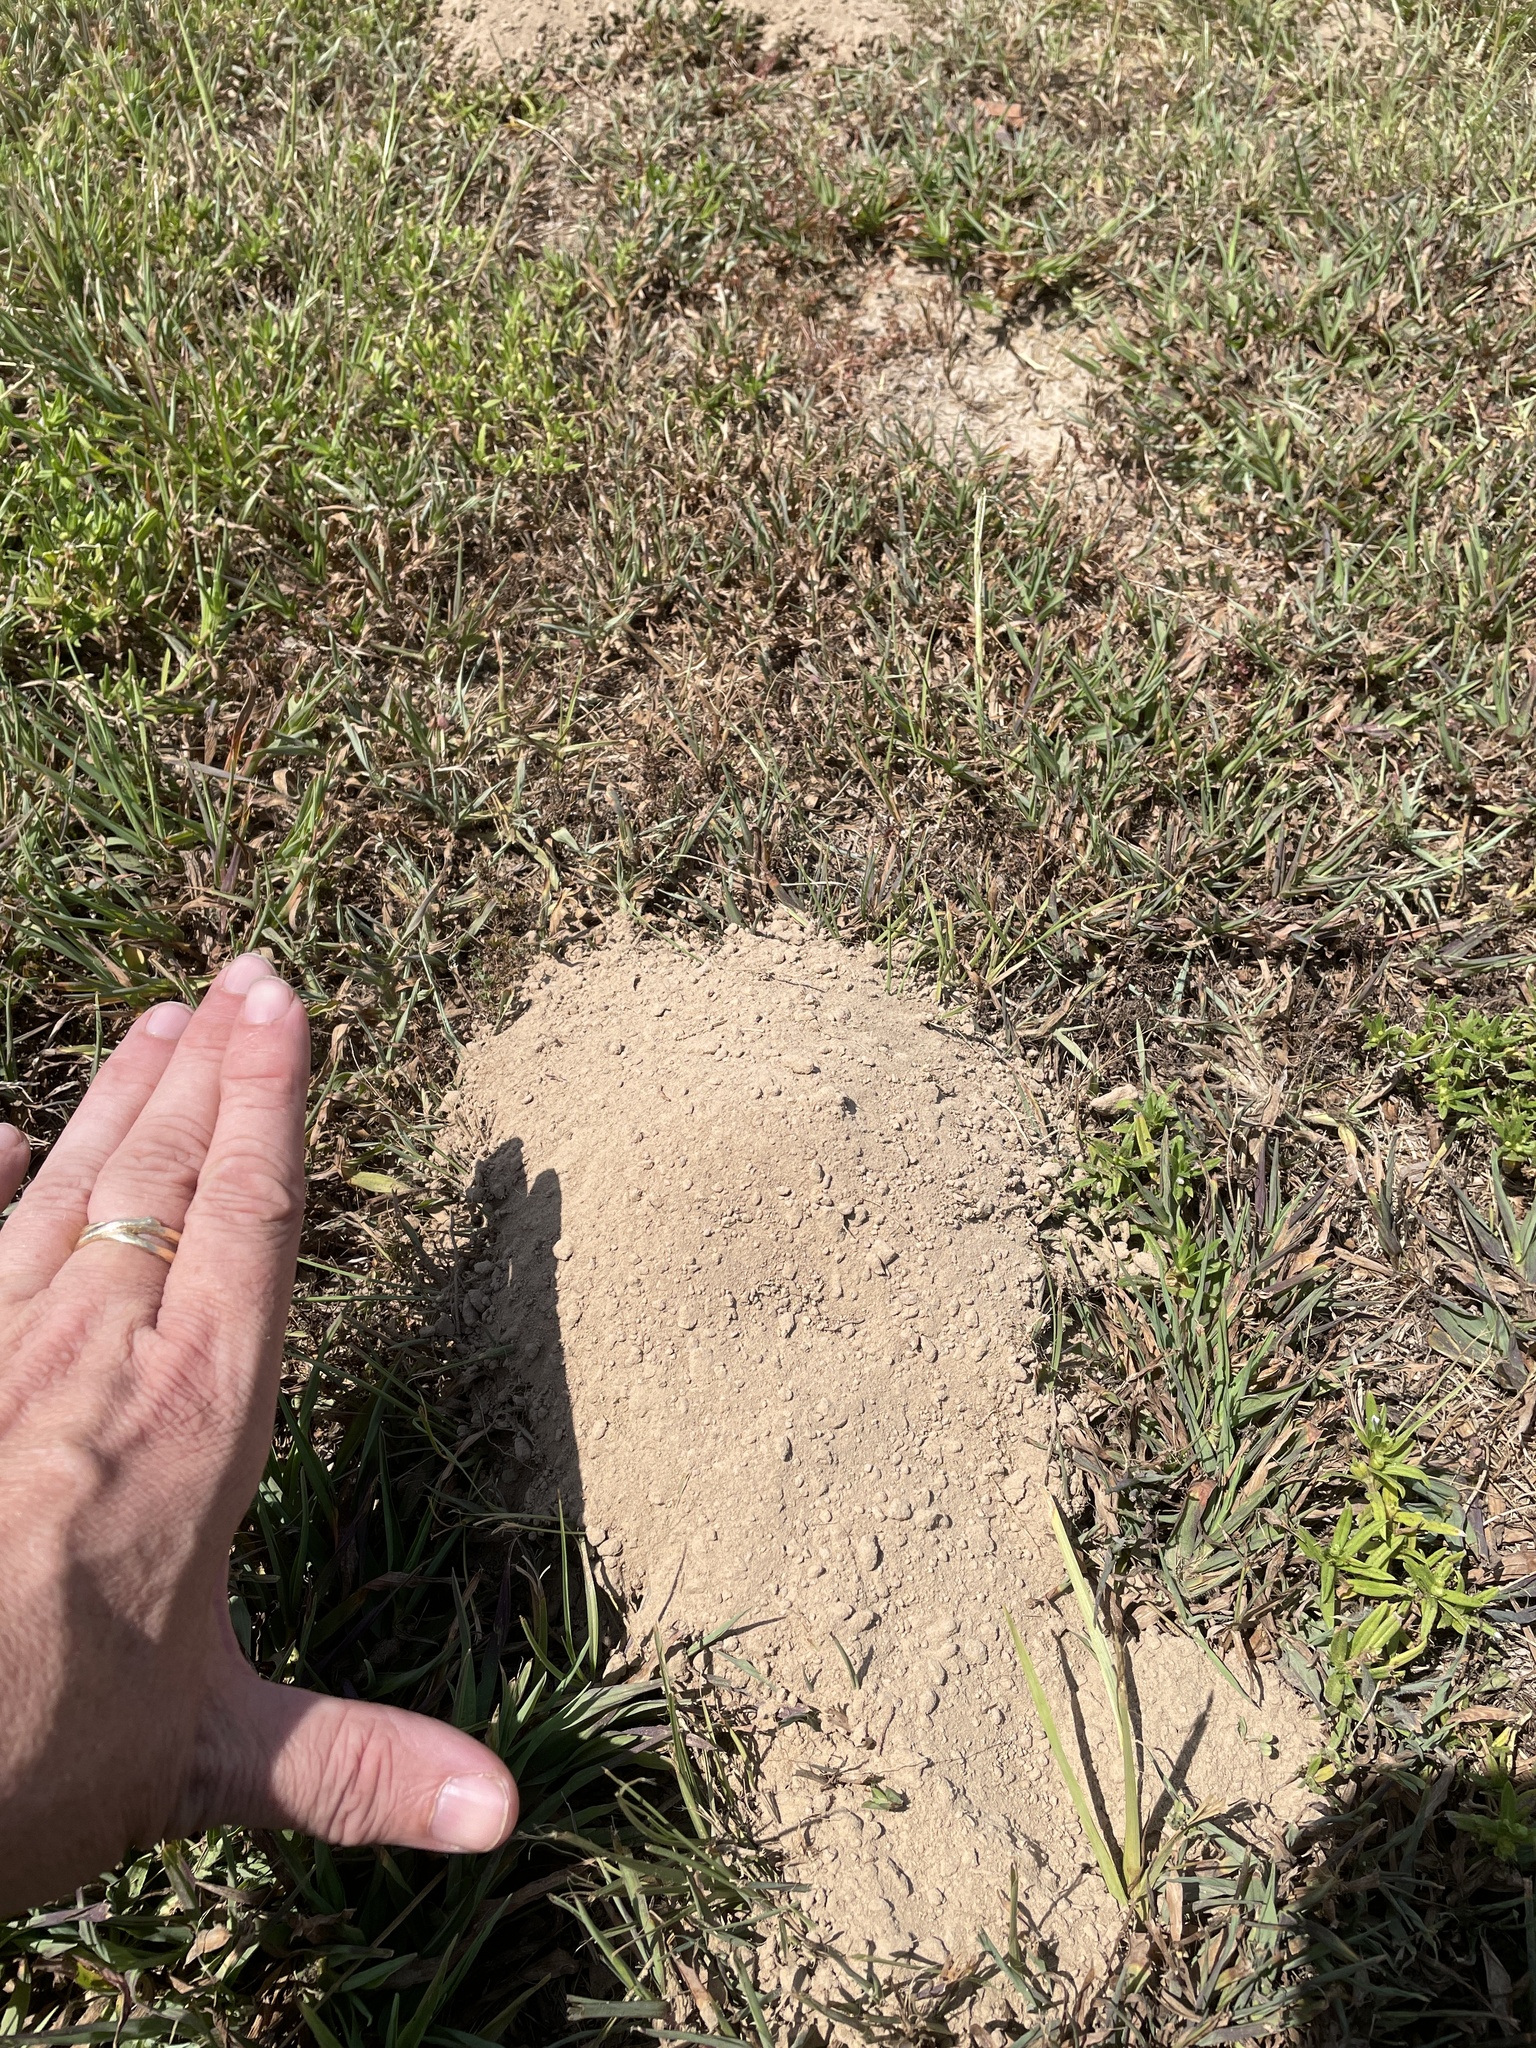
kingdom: Animalia
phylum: Chordata
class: Mammalia
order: Rodentia
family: Geomyidae
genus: Geomys
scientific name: Geomys breviceps
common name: Baird's pocket gopher
